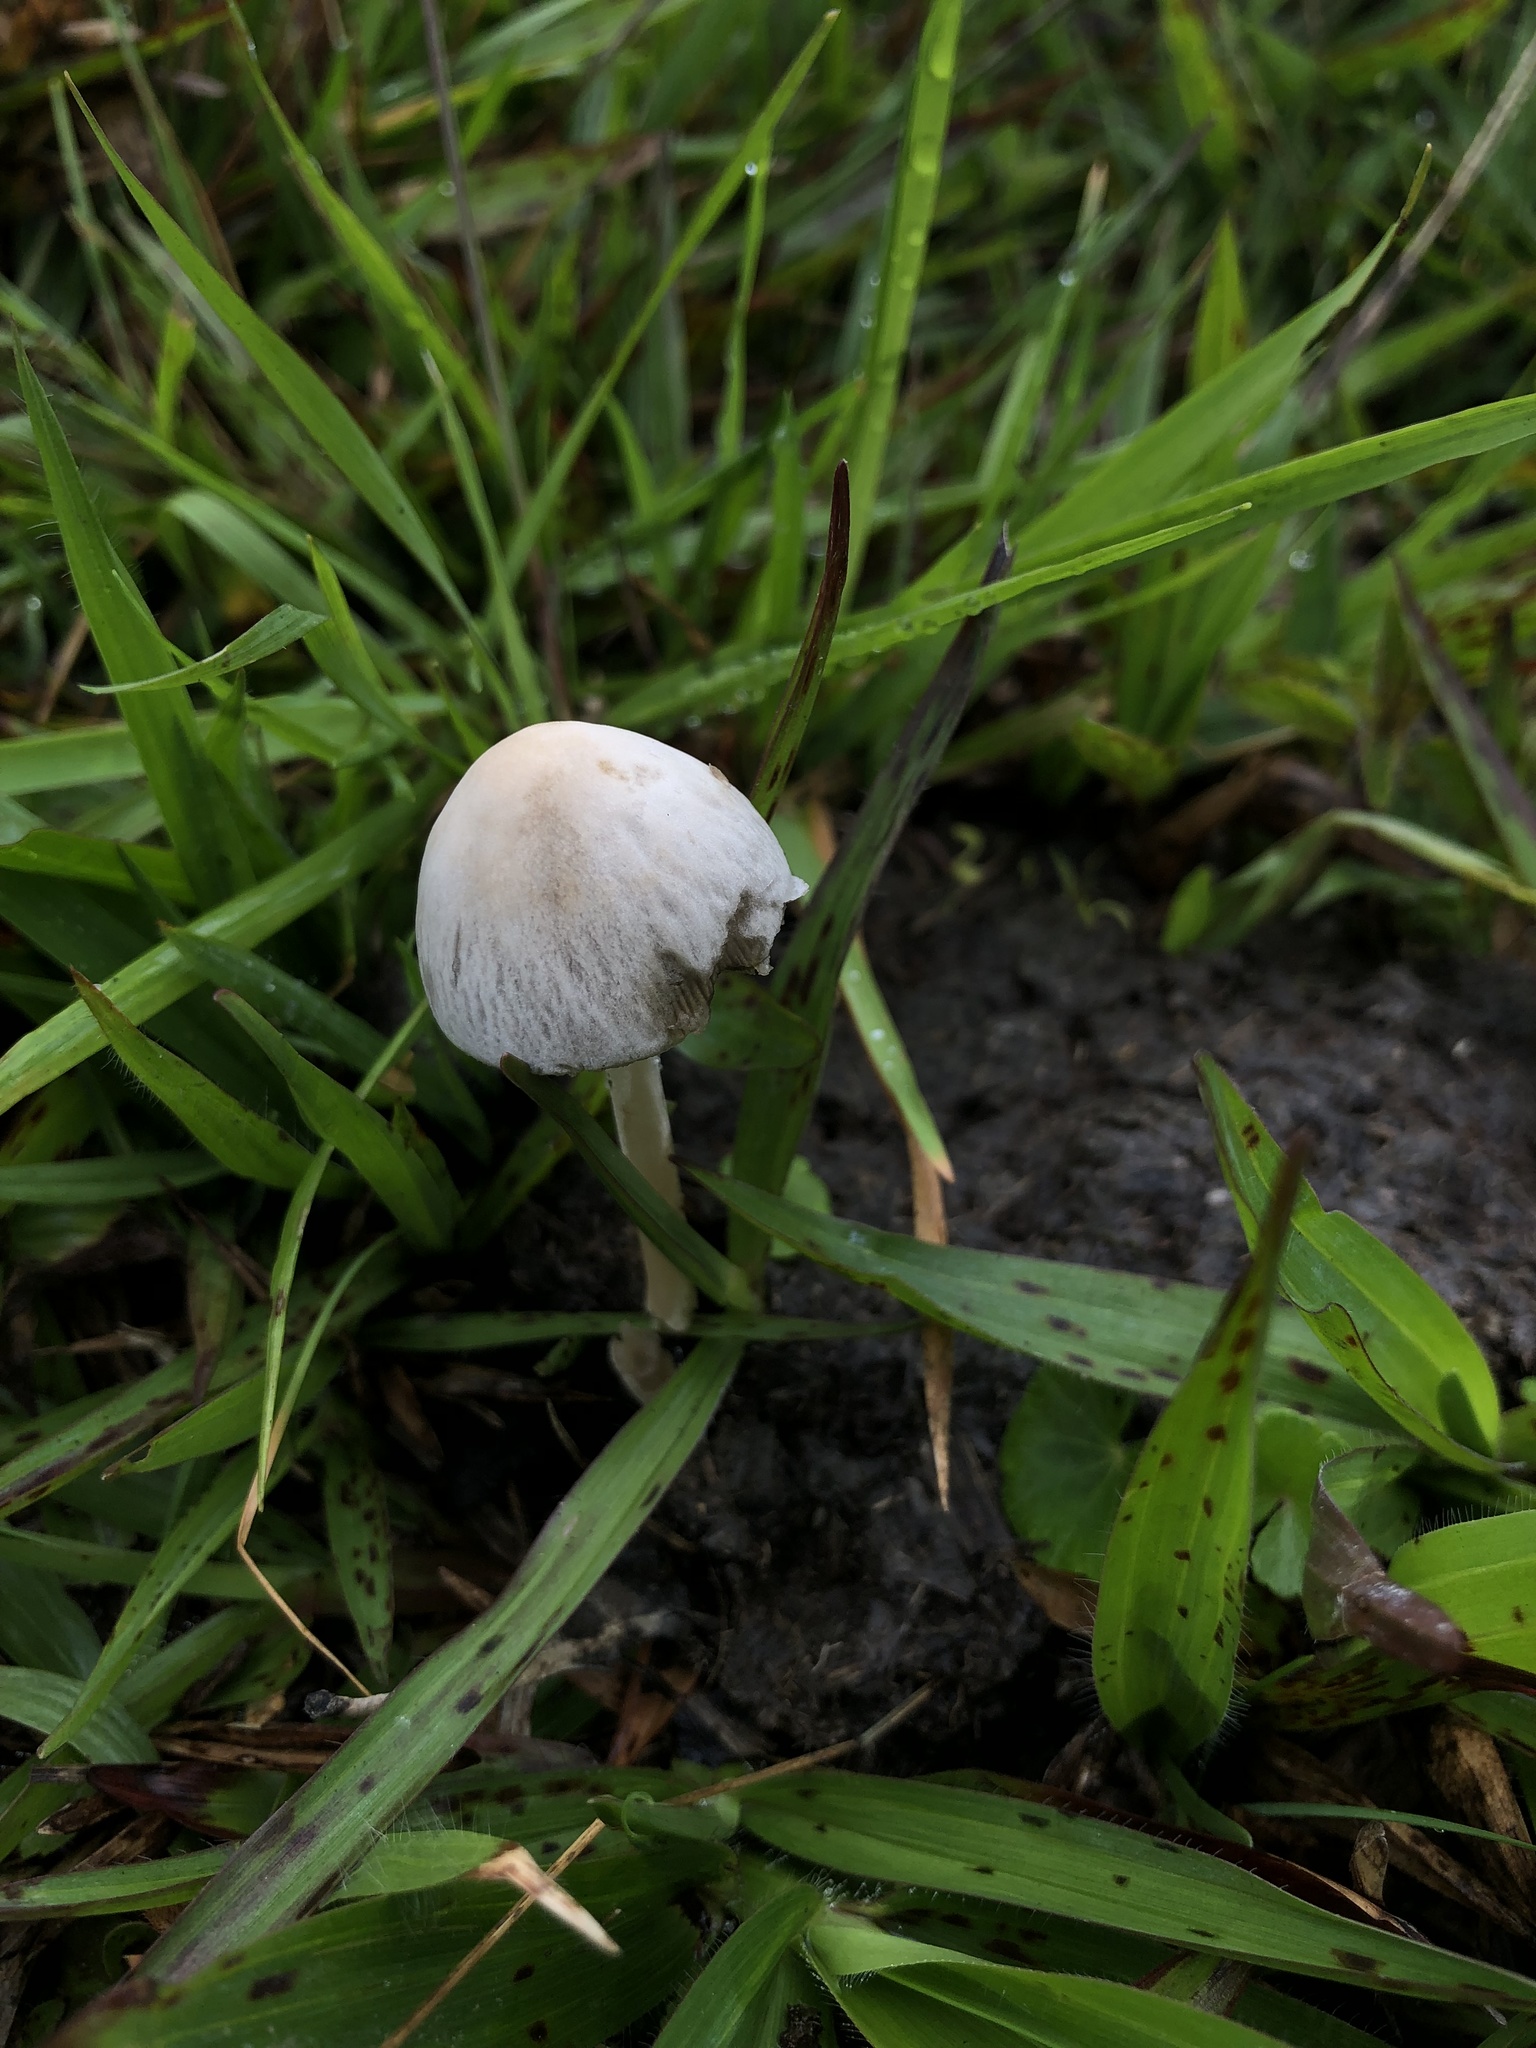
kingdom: Fungi
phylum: Basidiomycota
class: Agaricomycetes
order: Agaricales
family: Bolbitiaceae
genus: Panaeolus
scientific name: Panaeolus antillarum
